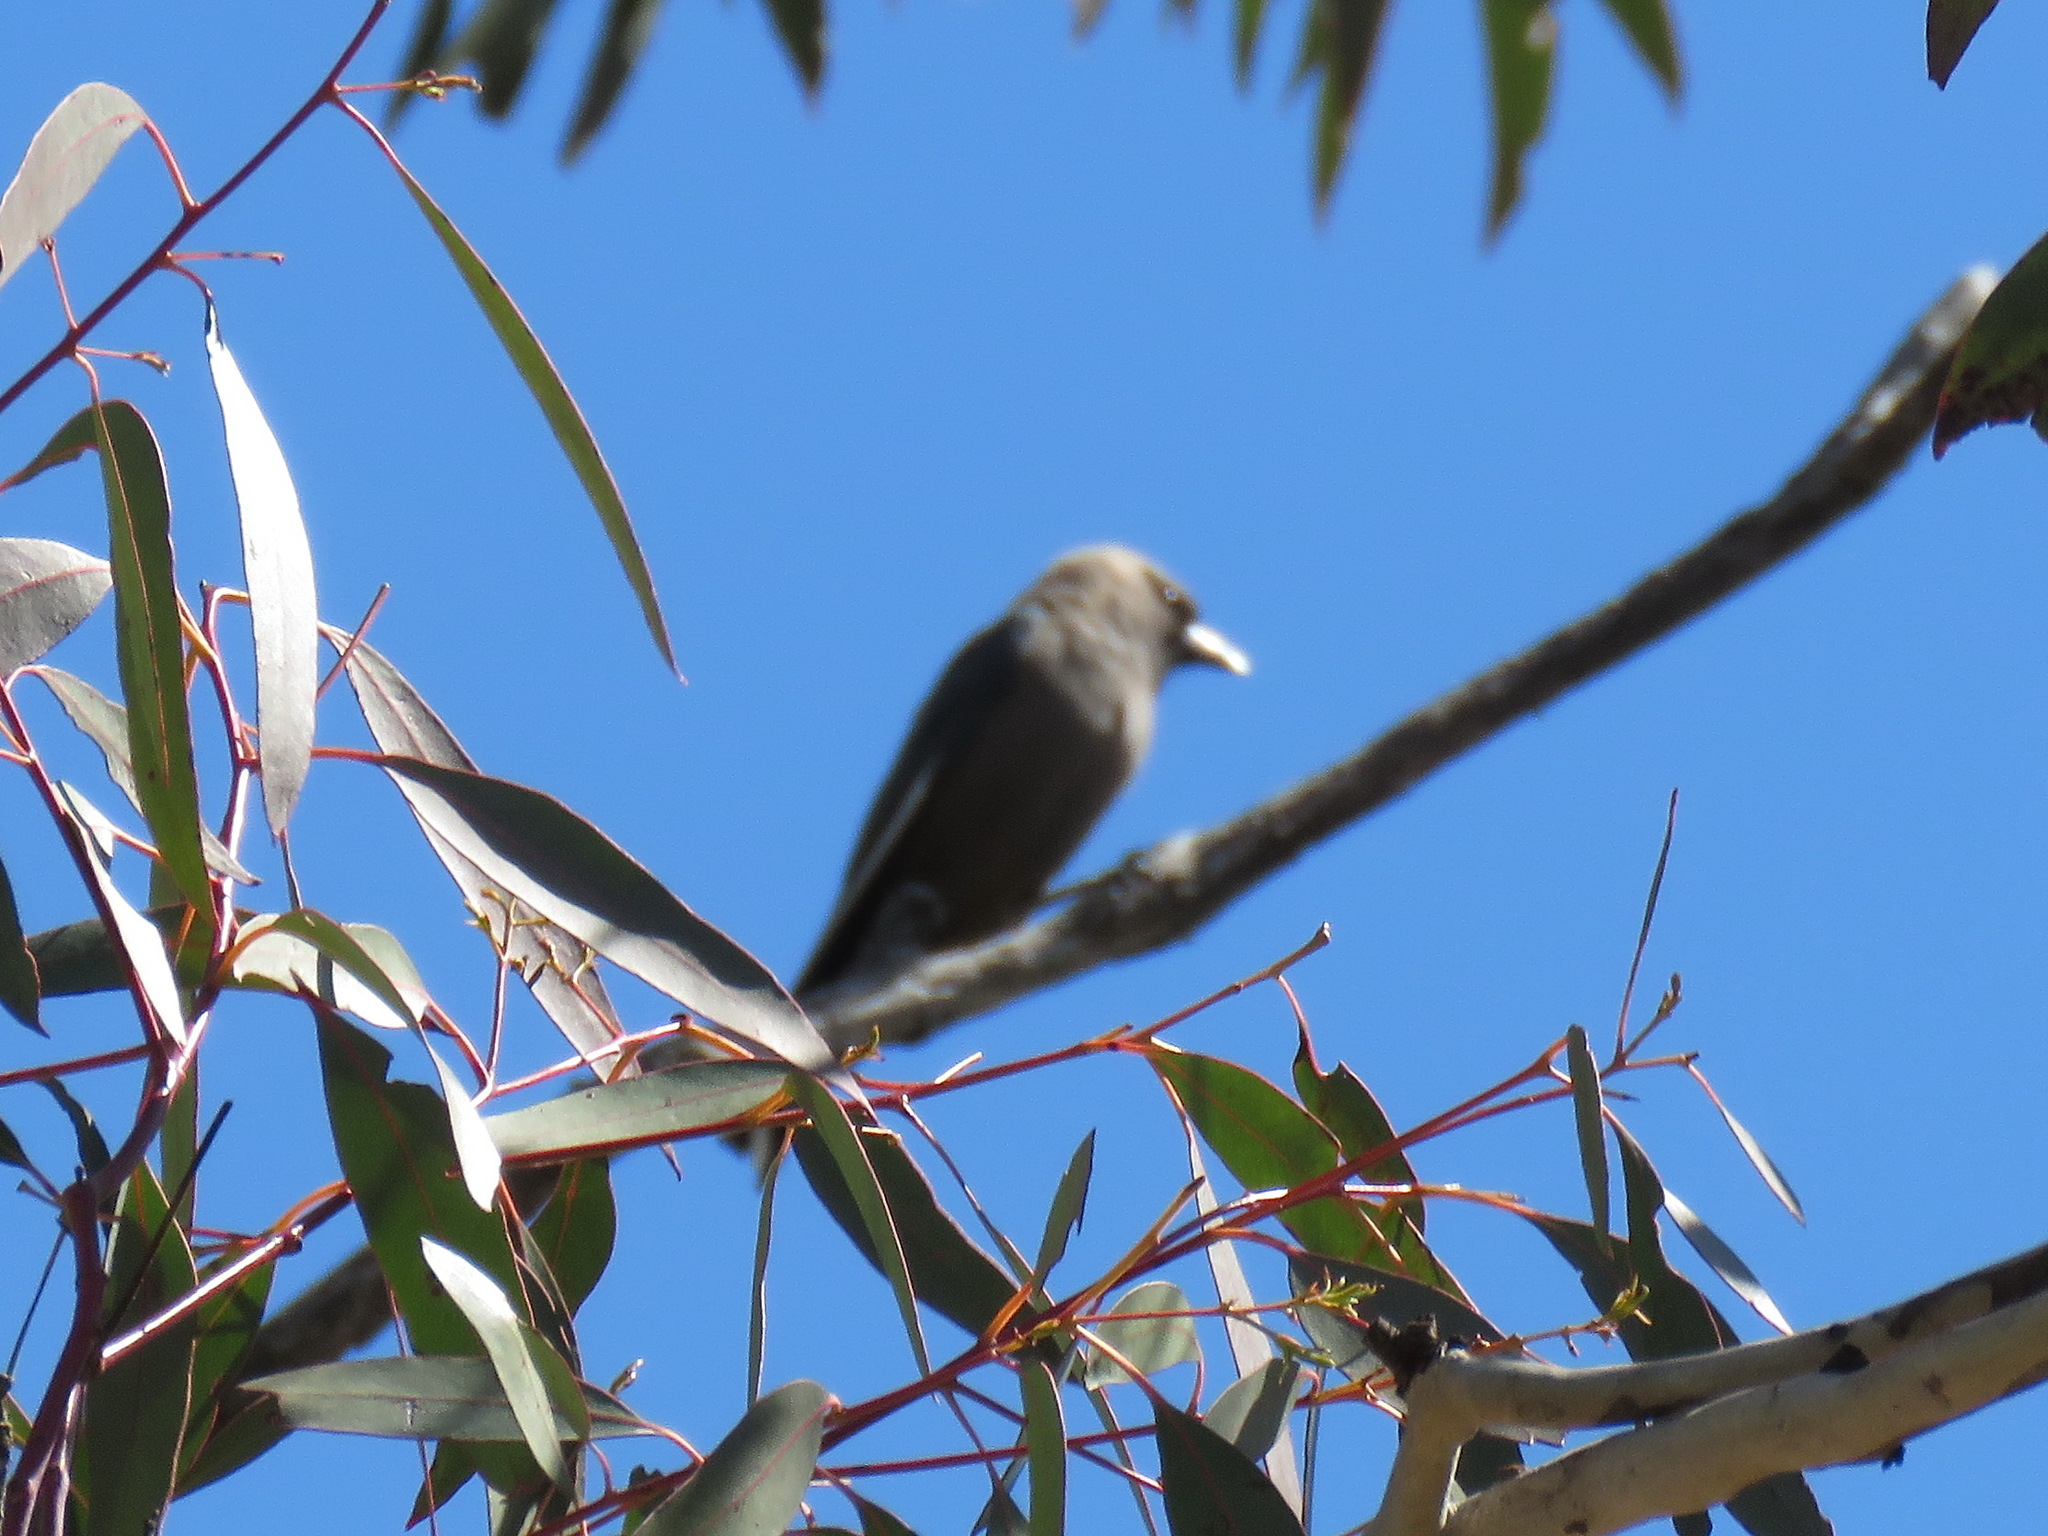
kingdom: Animalia
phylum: Chordata
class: Aves
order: Passeriformes
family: Artamidae
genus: Artamus
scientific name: Artamus cyanopterus
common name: Dusky woodswallow
